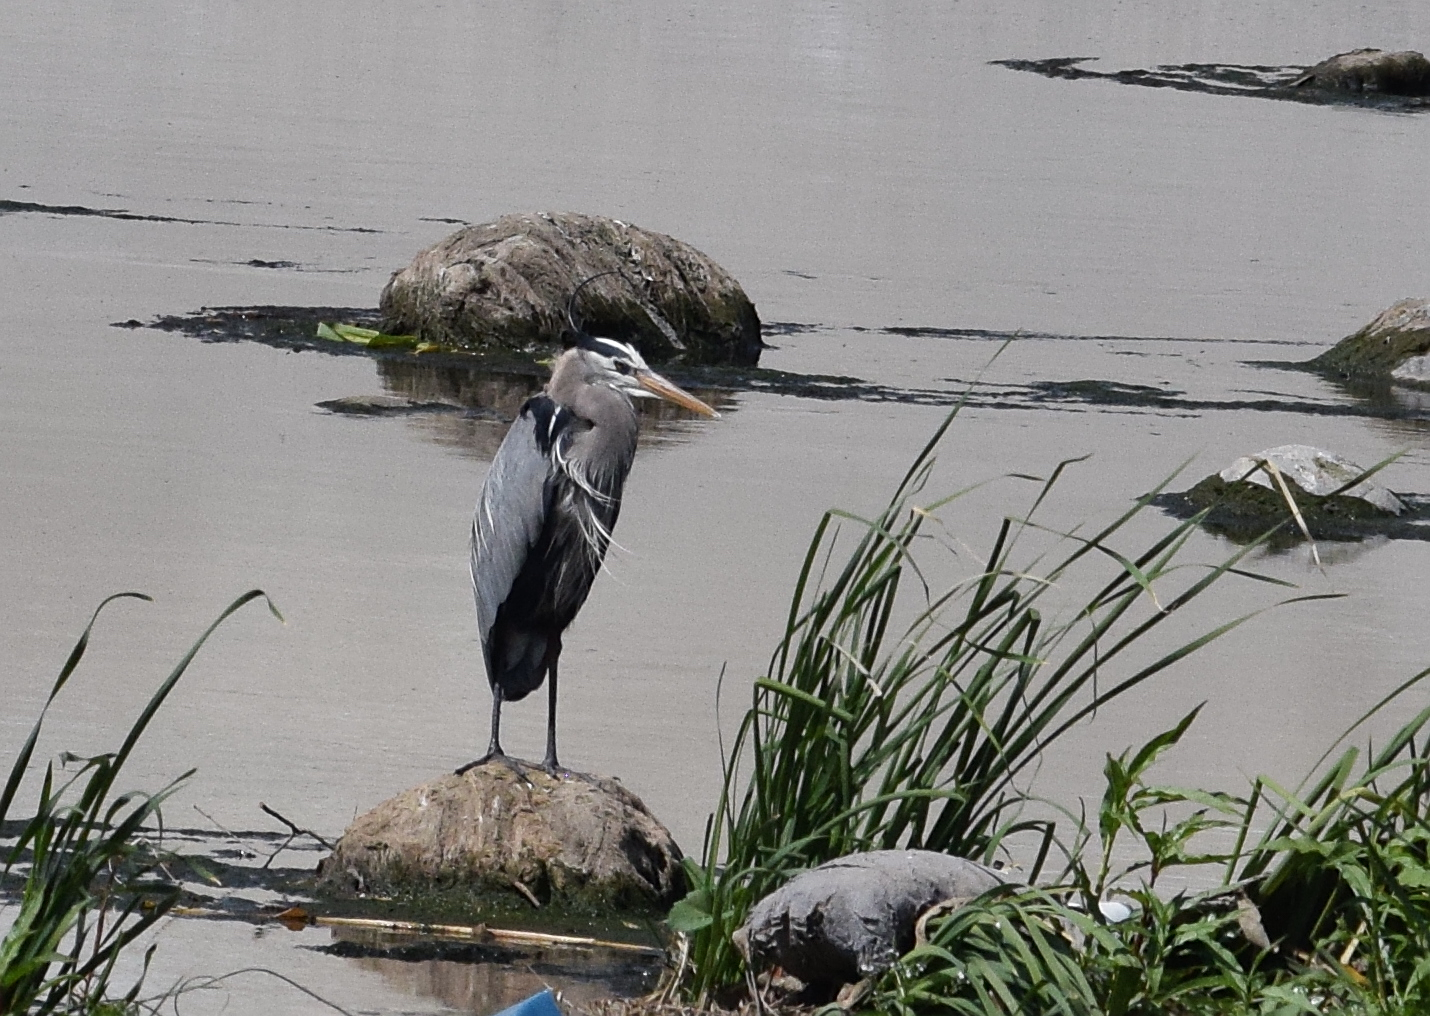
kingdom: Animalia
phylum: Chordata
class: Aves
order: Pelecaniformes
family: Ardeidae
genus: Ardea
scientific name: Ardea herodias
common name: Great blue heron
